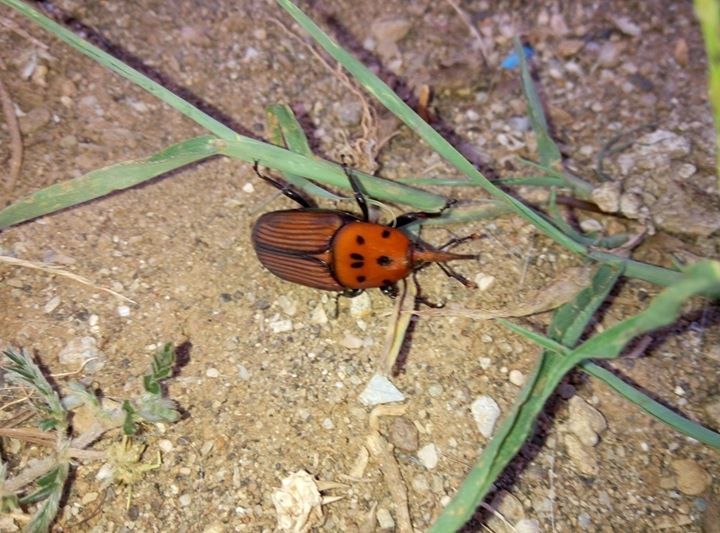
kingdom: Animalia
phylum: Arthropoda
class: Insecta
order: Coleoptera
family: Dryophthoridae
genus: Rhynchophorus
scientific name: Rhynchophorus ferrugineus
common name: Red palm weevil
